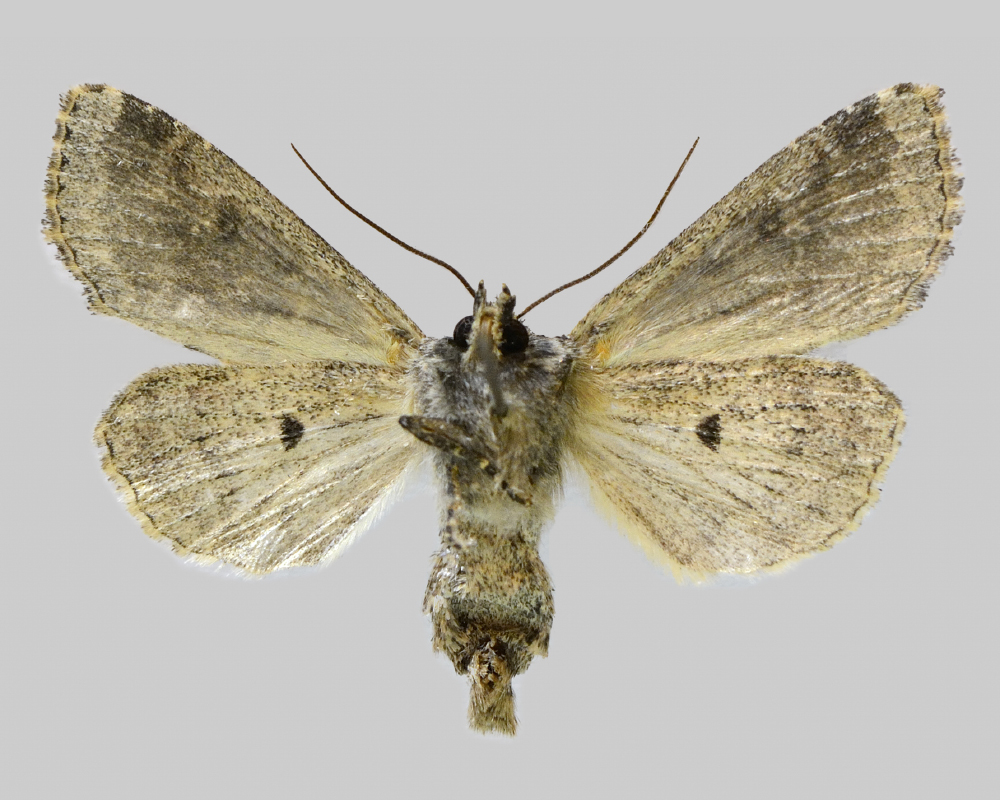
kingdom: Animalia
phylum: Arthropoda
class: Insecta
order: Lepidoptera
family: Noctuidae
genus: Apamea
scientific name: Apamea unanimis
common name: Small clouded brindle
